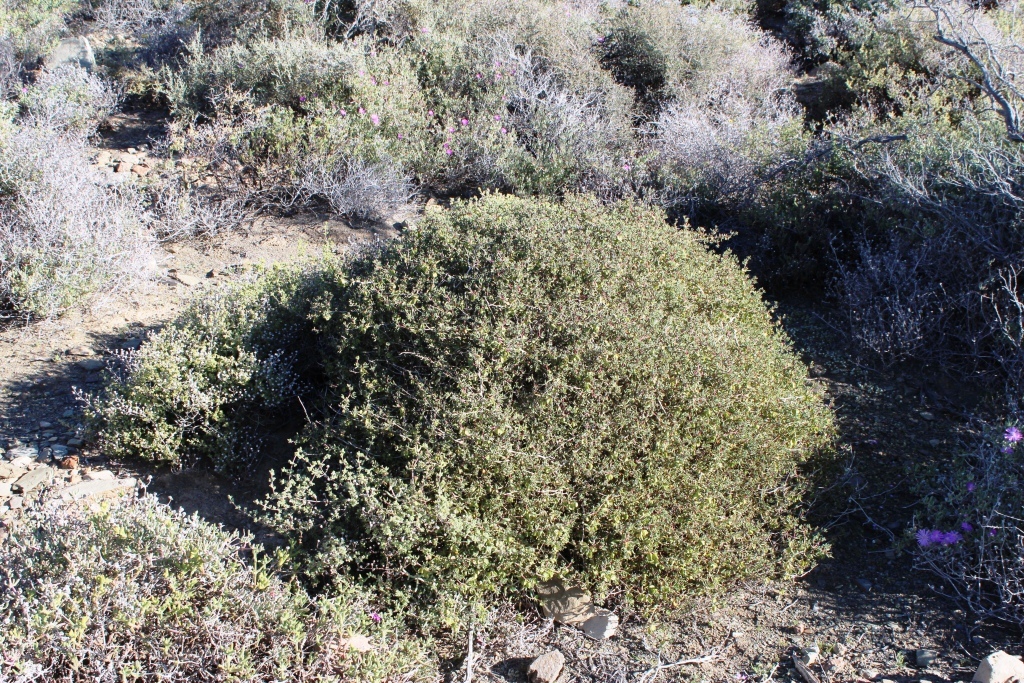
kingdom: Plantae
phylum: Tracheophyta
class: Magnoliopsida
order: Caryophyllales
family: Aizoaceae
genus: Tetragonia
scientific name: Tetragonia fruticosa
